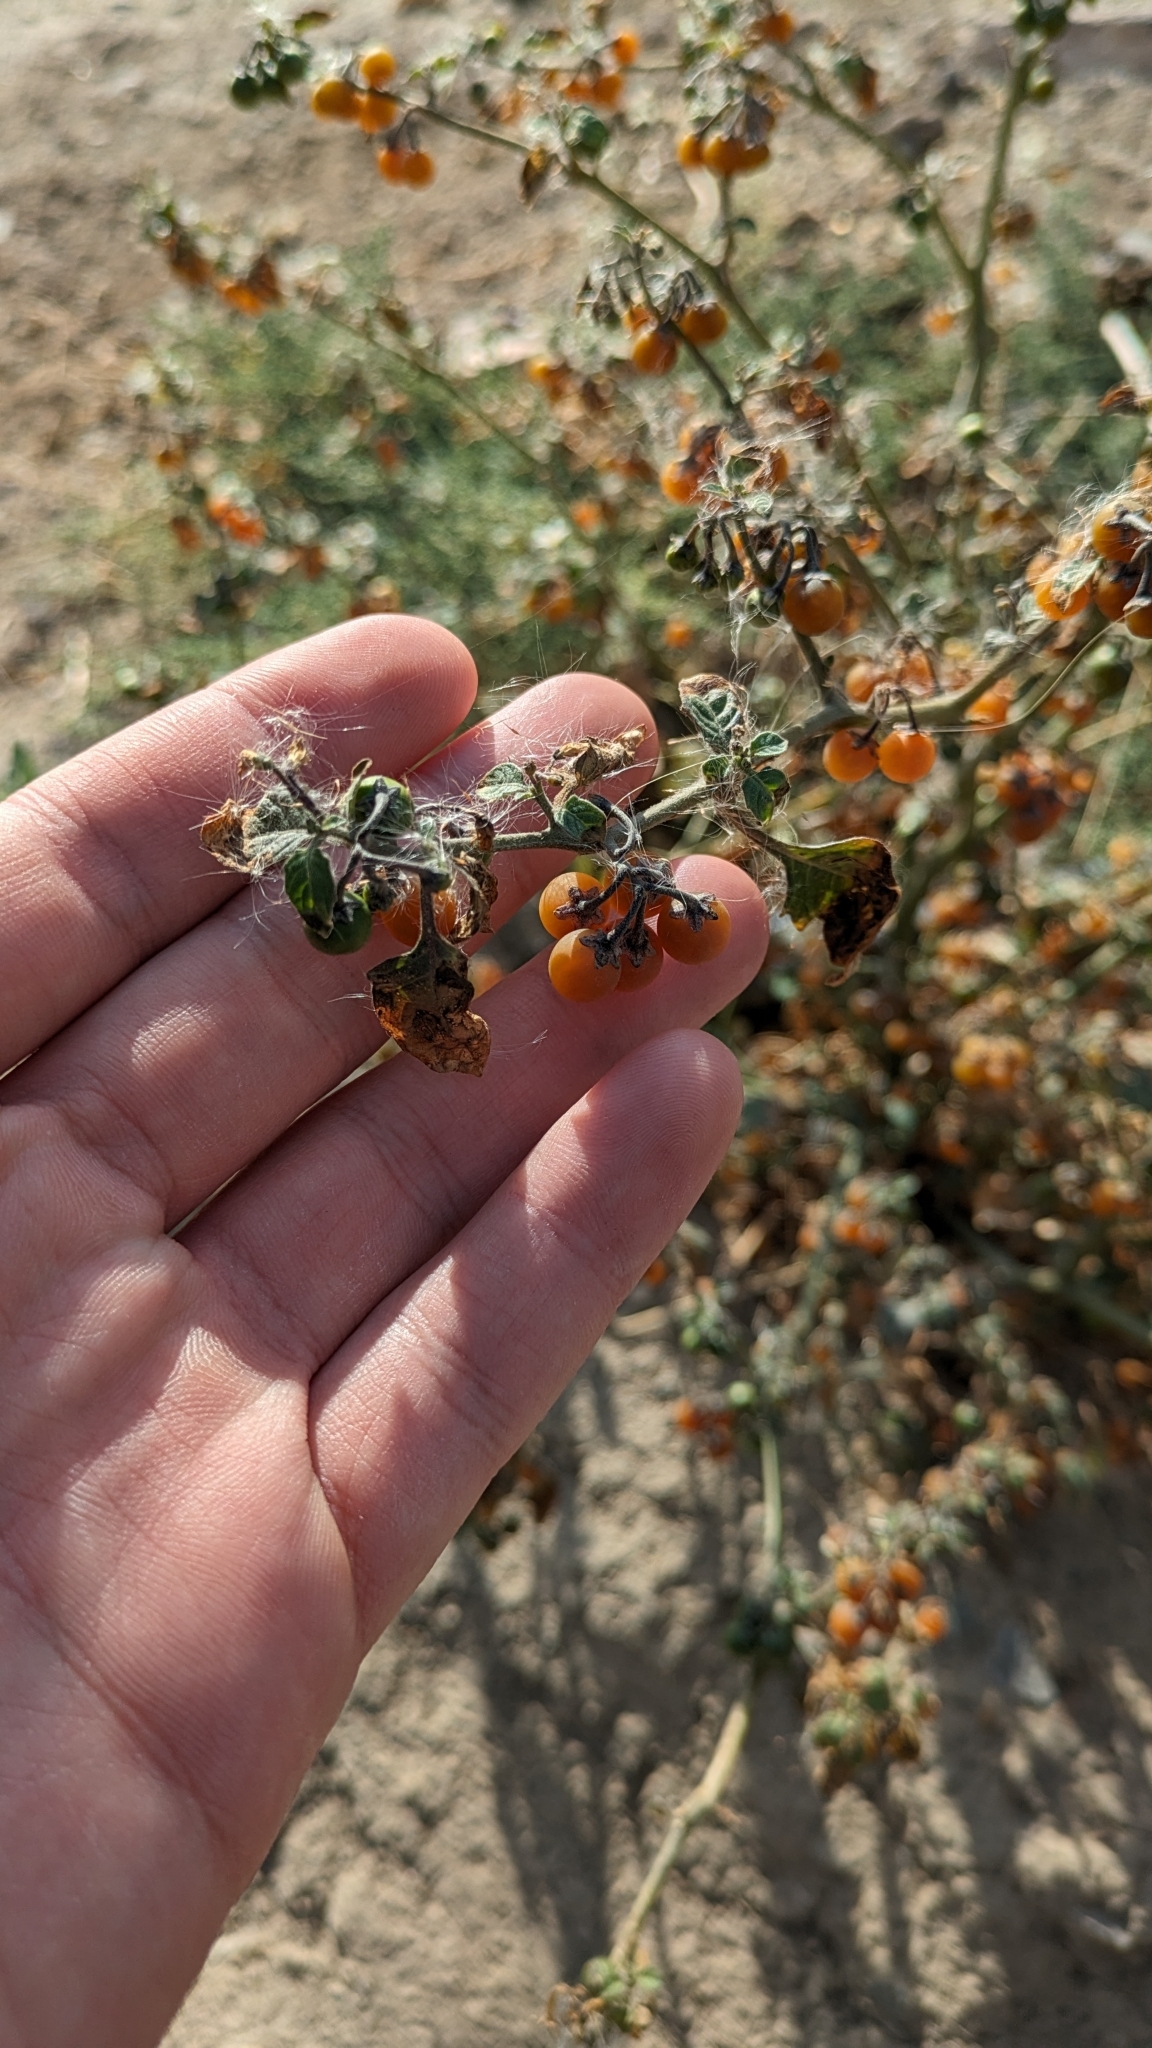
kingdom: Plantae
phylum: Tracheophyta
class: Magnoliopsida
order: Solanales
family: Solanaceae
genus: Solanum
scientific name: Solanum villosum
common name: Red nightshade
